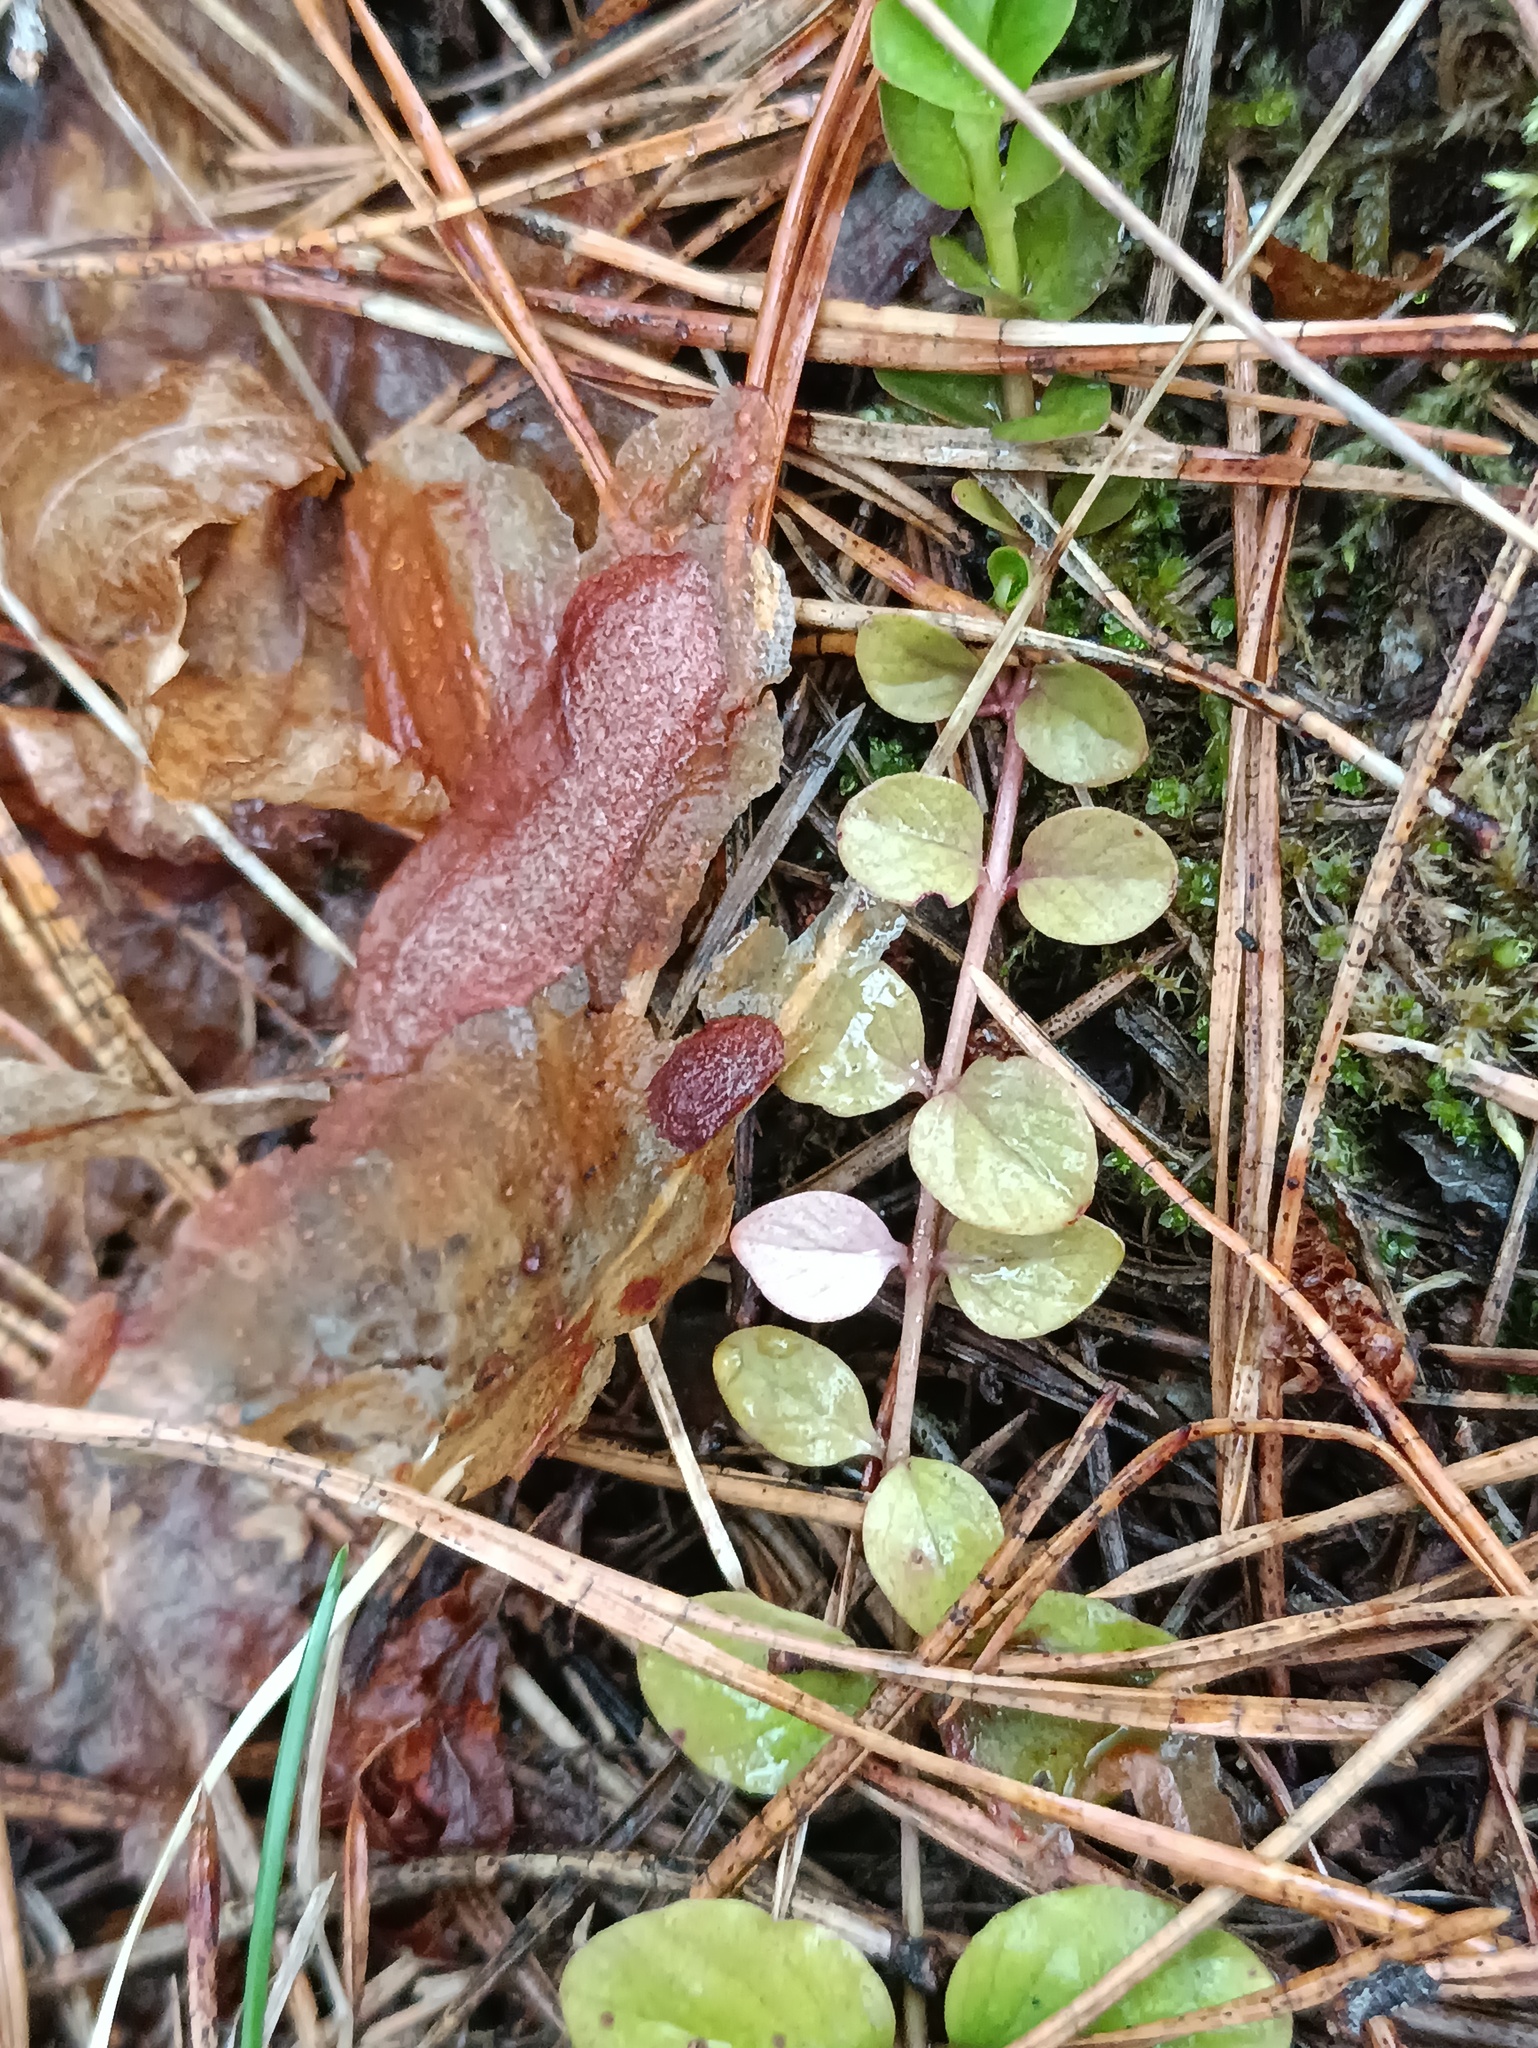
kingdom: Plantae
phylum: Tracheophyta
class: Magnoliopsida
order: Ericales
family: Primulaceae
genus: Lysimachia
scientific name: Lysimachia nummularia
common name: Moneywort
